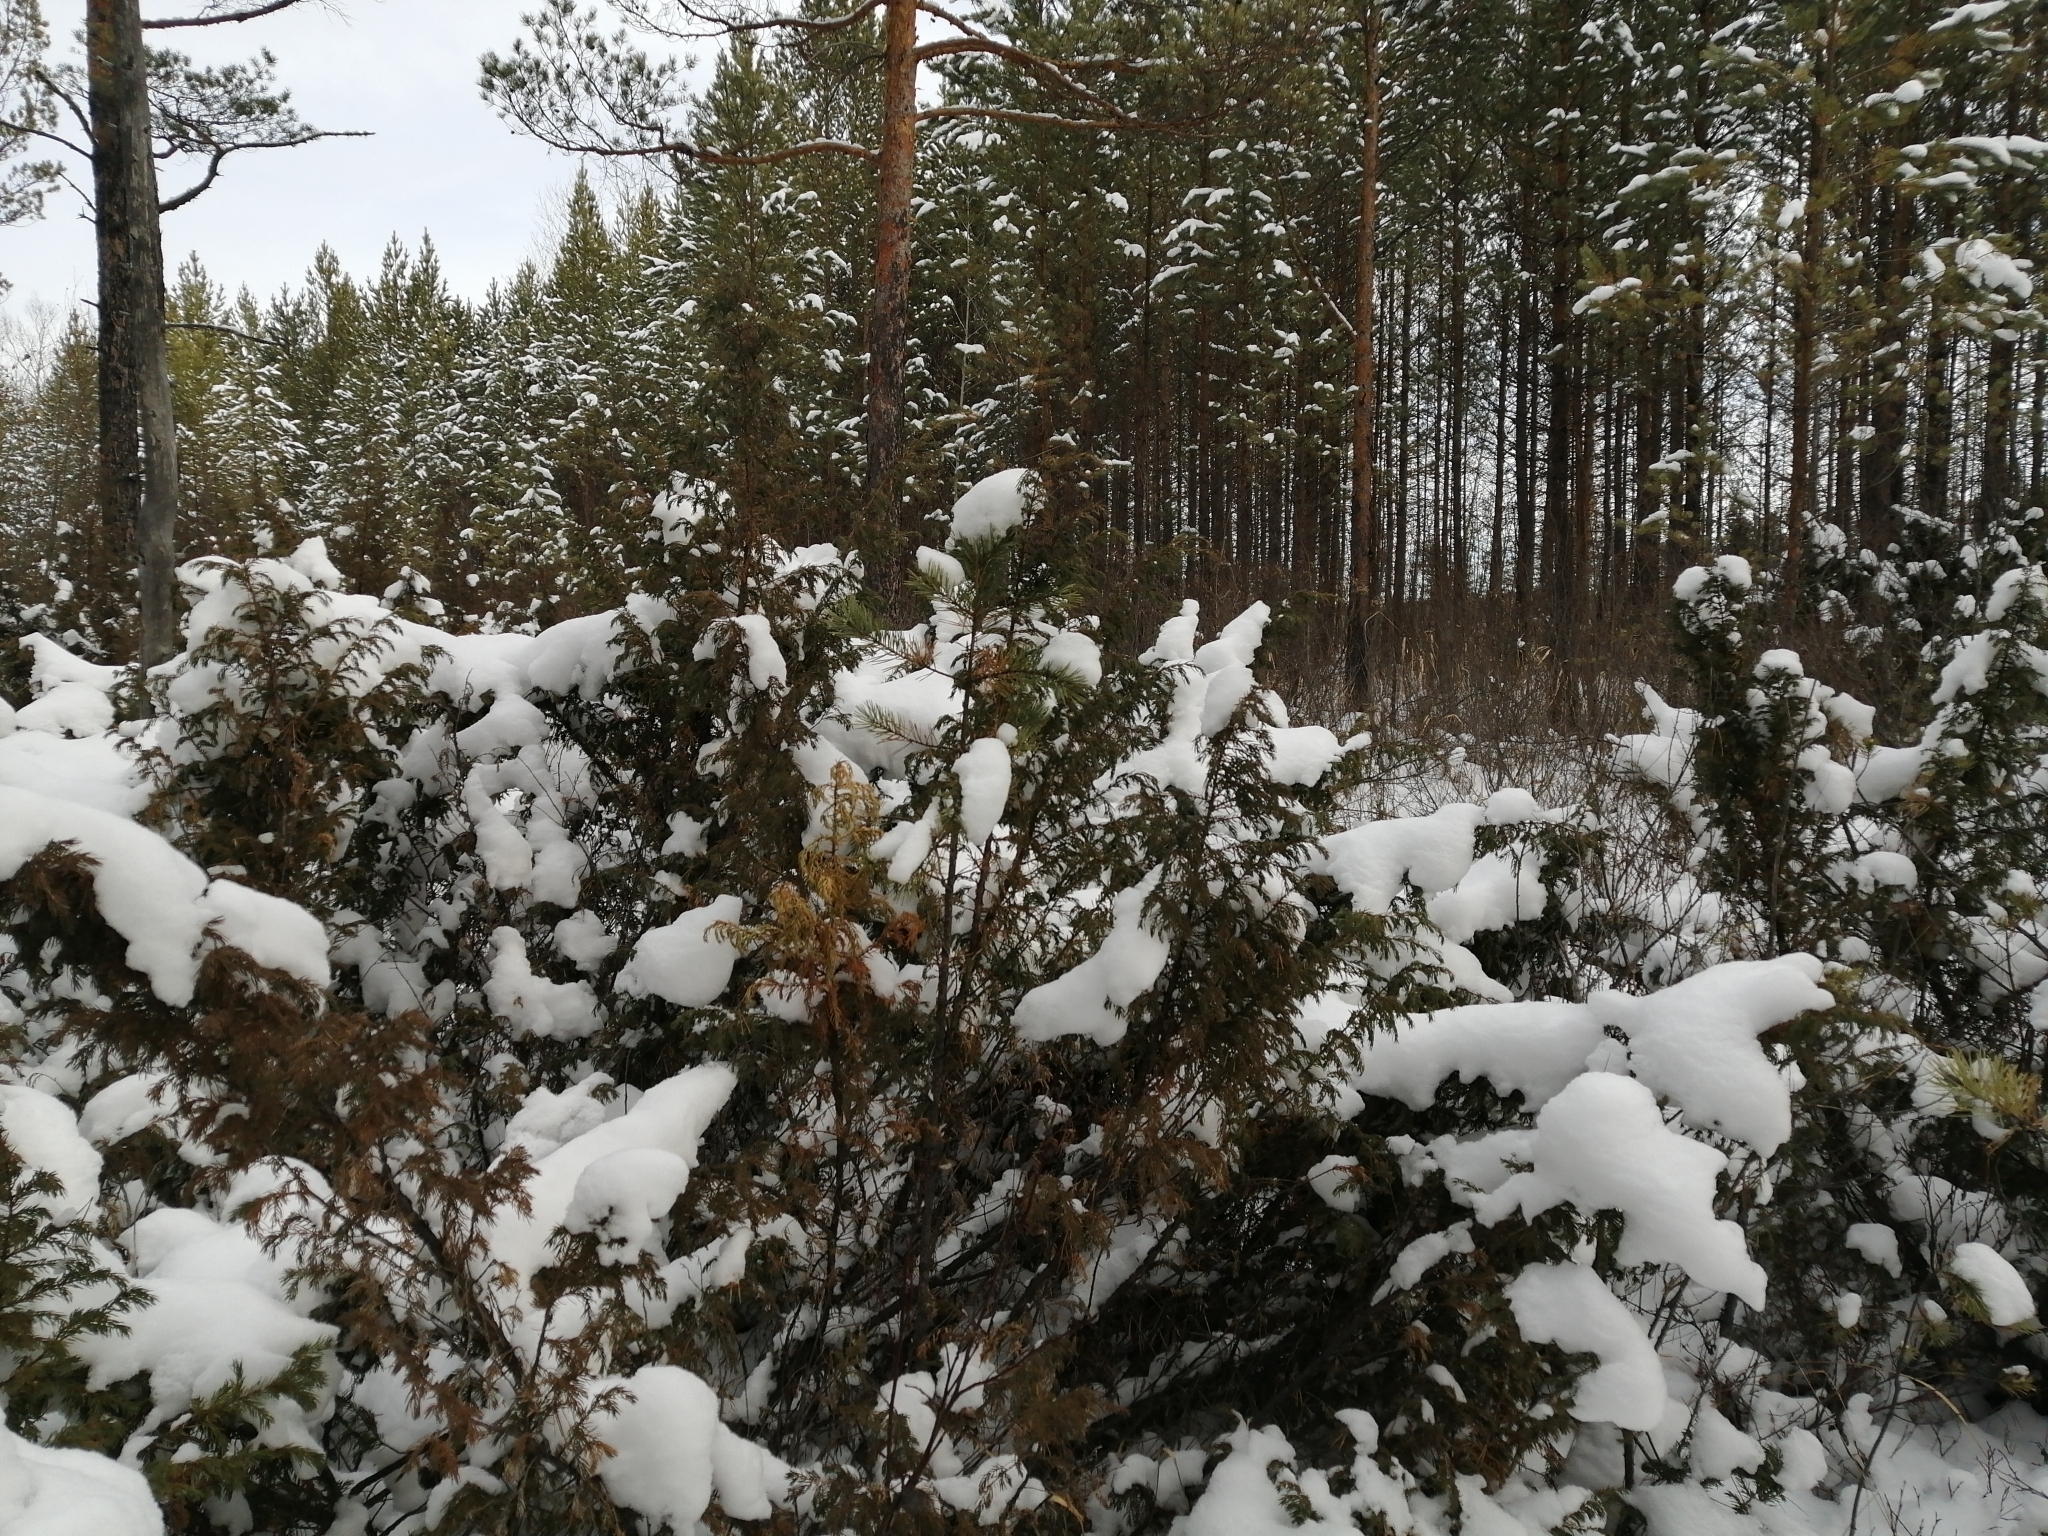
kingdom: Plantae
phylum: Tracheophyta
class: Pinopsida
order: Pinales
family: Cupressaceae
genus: Juniperus
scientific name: Juniperus communis
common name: Common juniper
